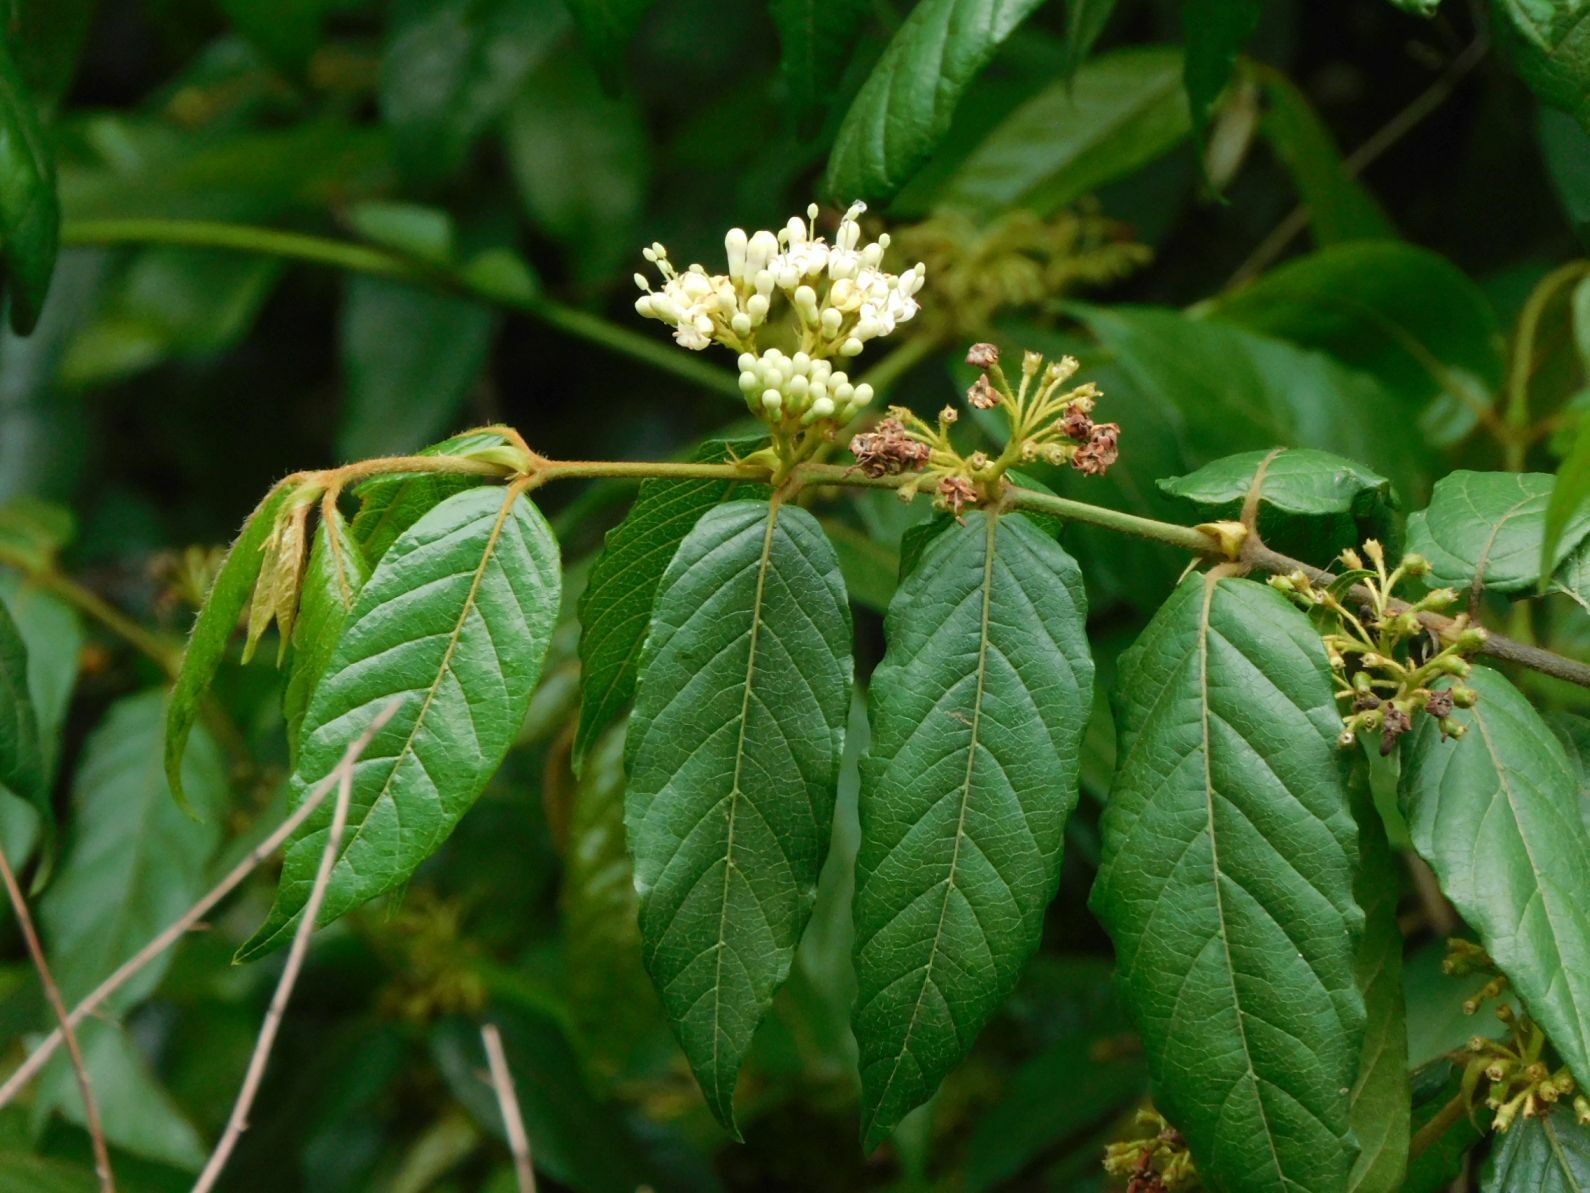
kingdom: Plantae
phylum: Tracheophyta
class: Magnoliopsida
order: Gentianales
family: Rubiaceae
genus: Keetia
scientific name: Keetia gueinzii
